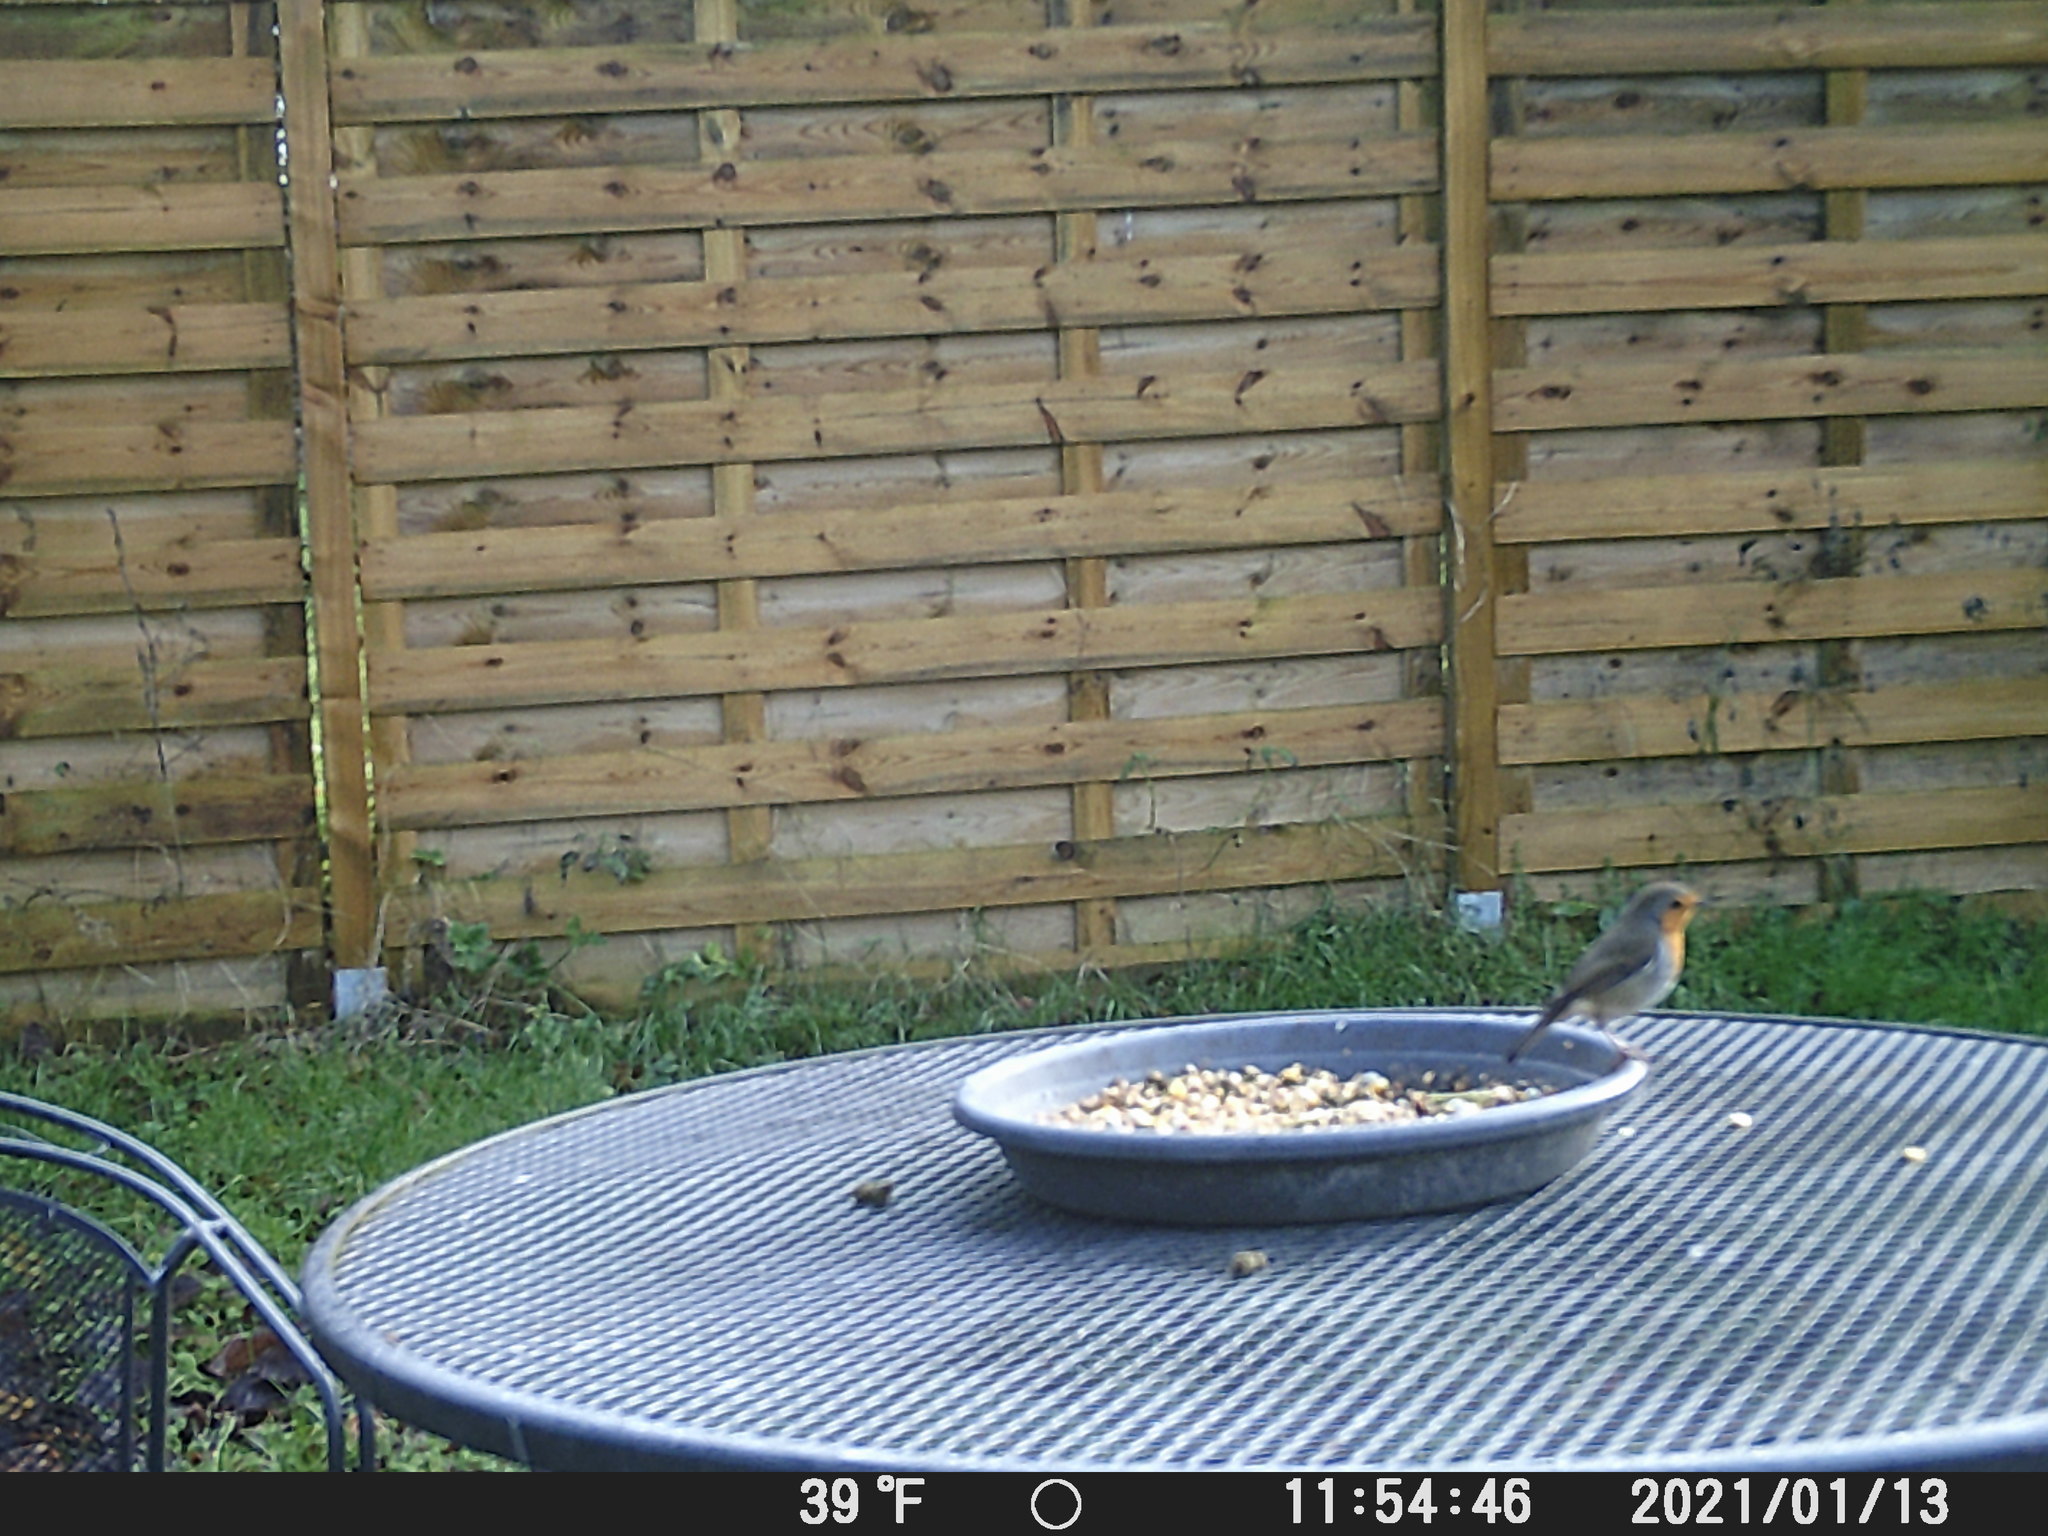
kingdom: Animalia
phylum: Chordata
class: Aves
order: Passeriformes
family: Muscicapidae
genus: Erithacus
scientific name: Erithacus rubecula
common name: European robin
